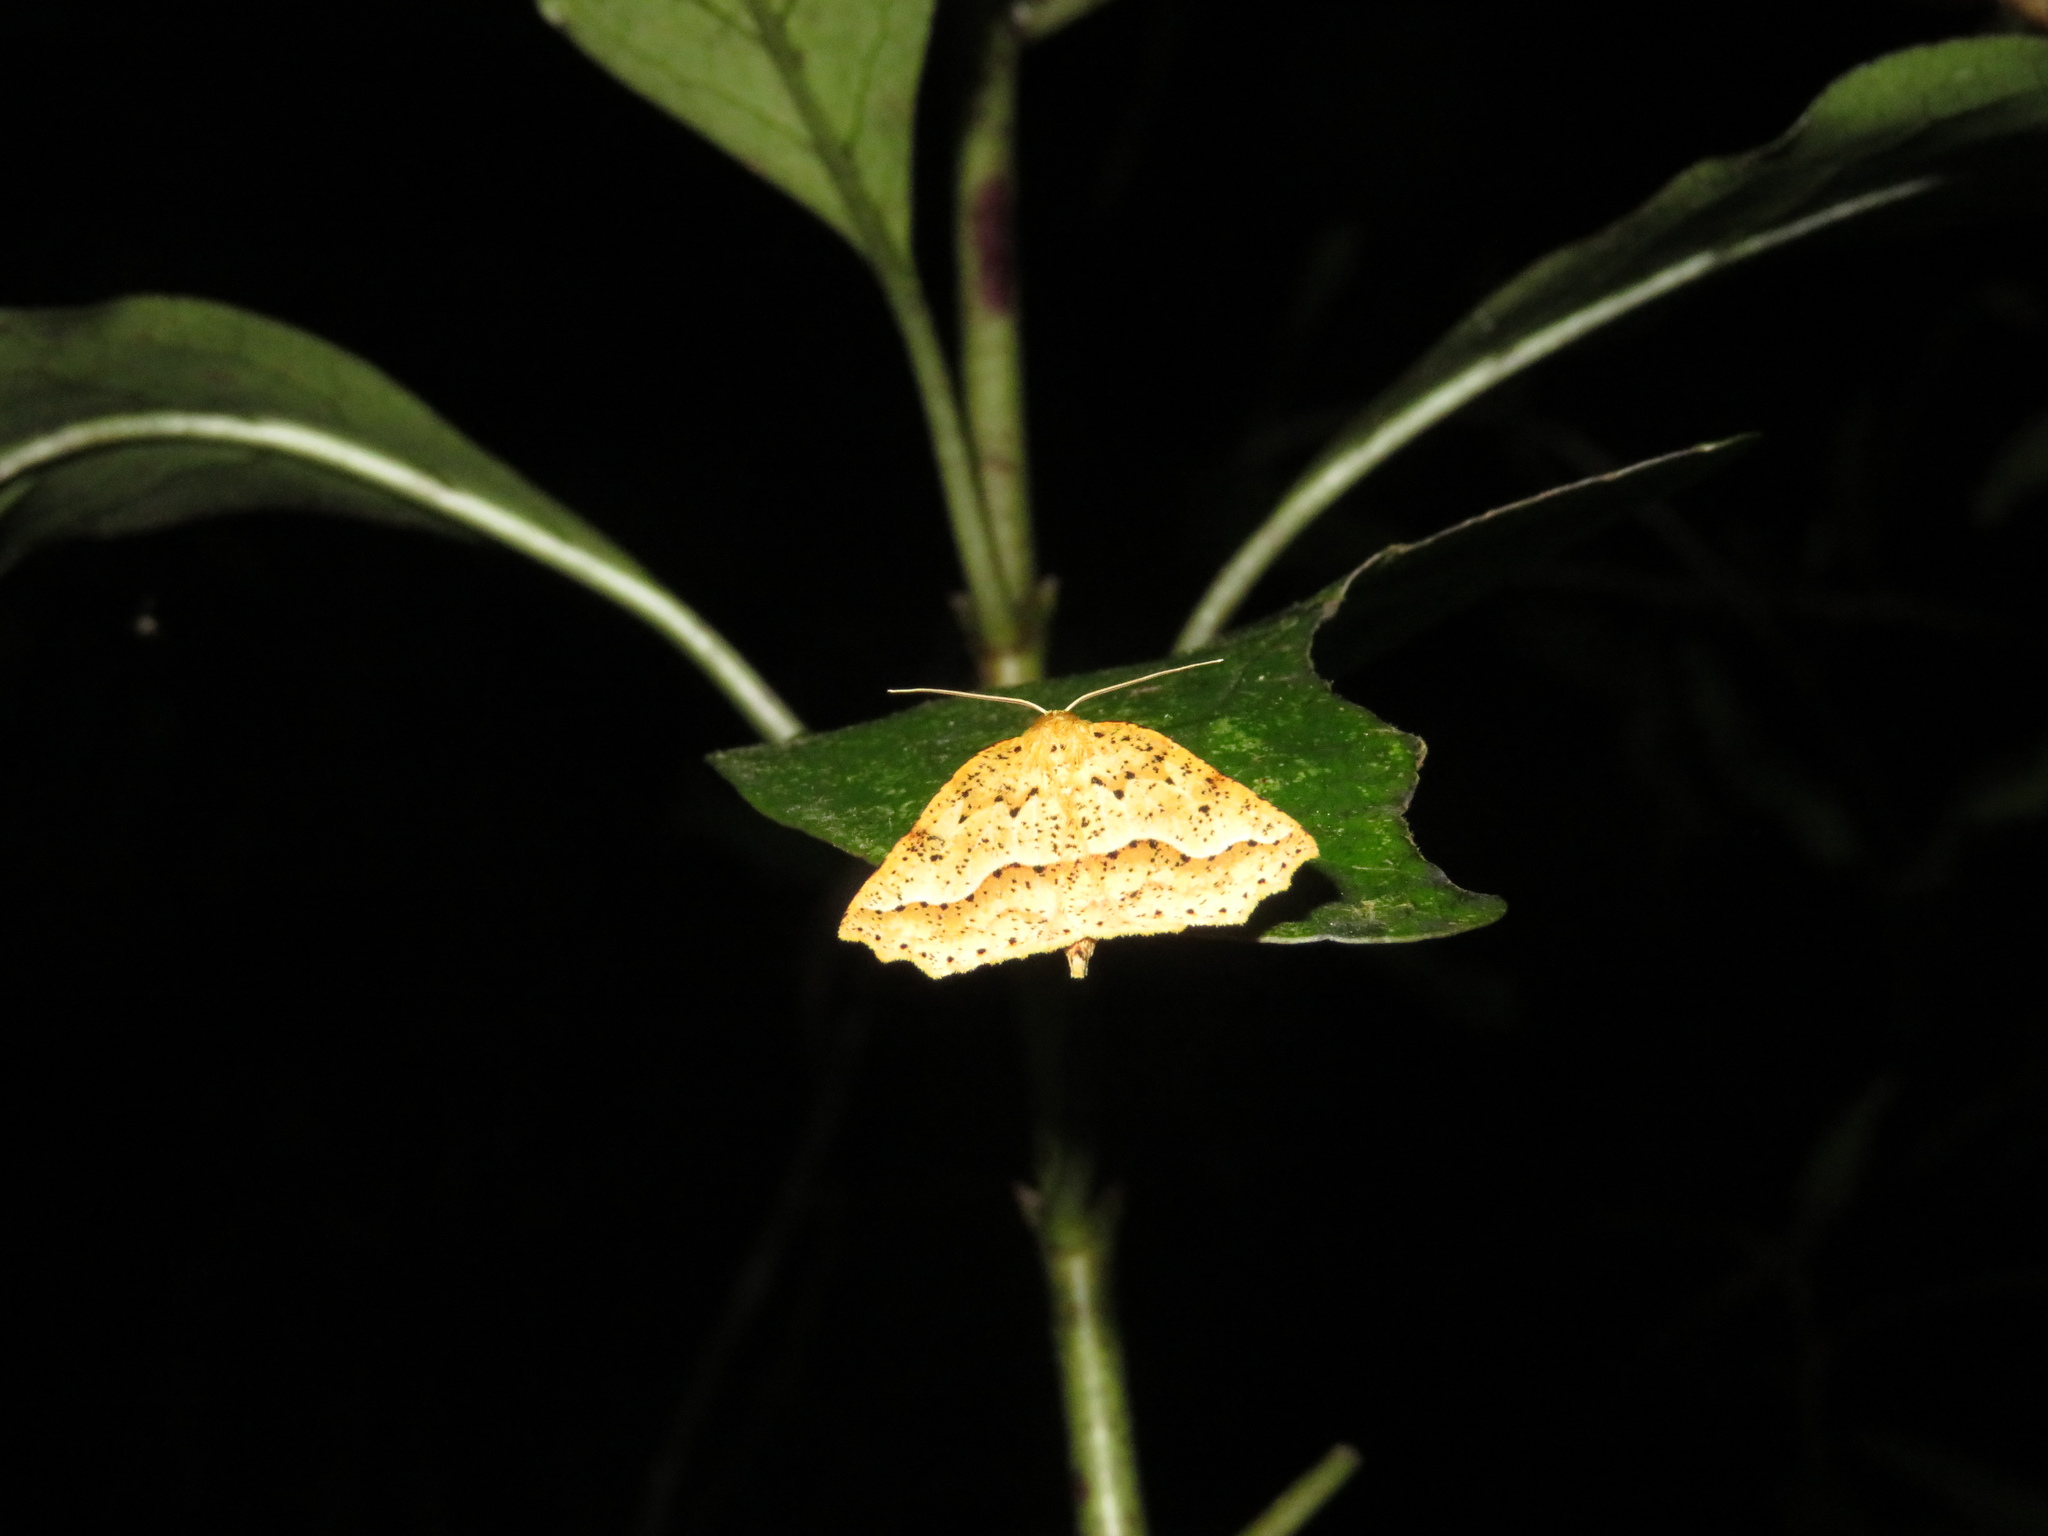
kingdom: Animalia
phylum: Arthropoda
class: Insecta
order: Lepidoptera
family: Geometridae
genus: Ischalis
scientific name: Ischalis variabilis
